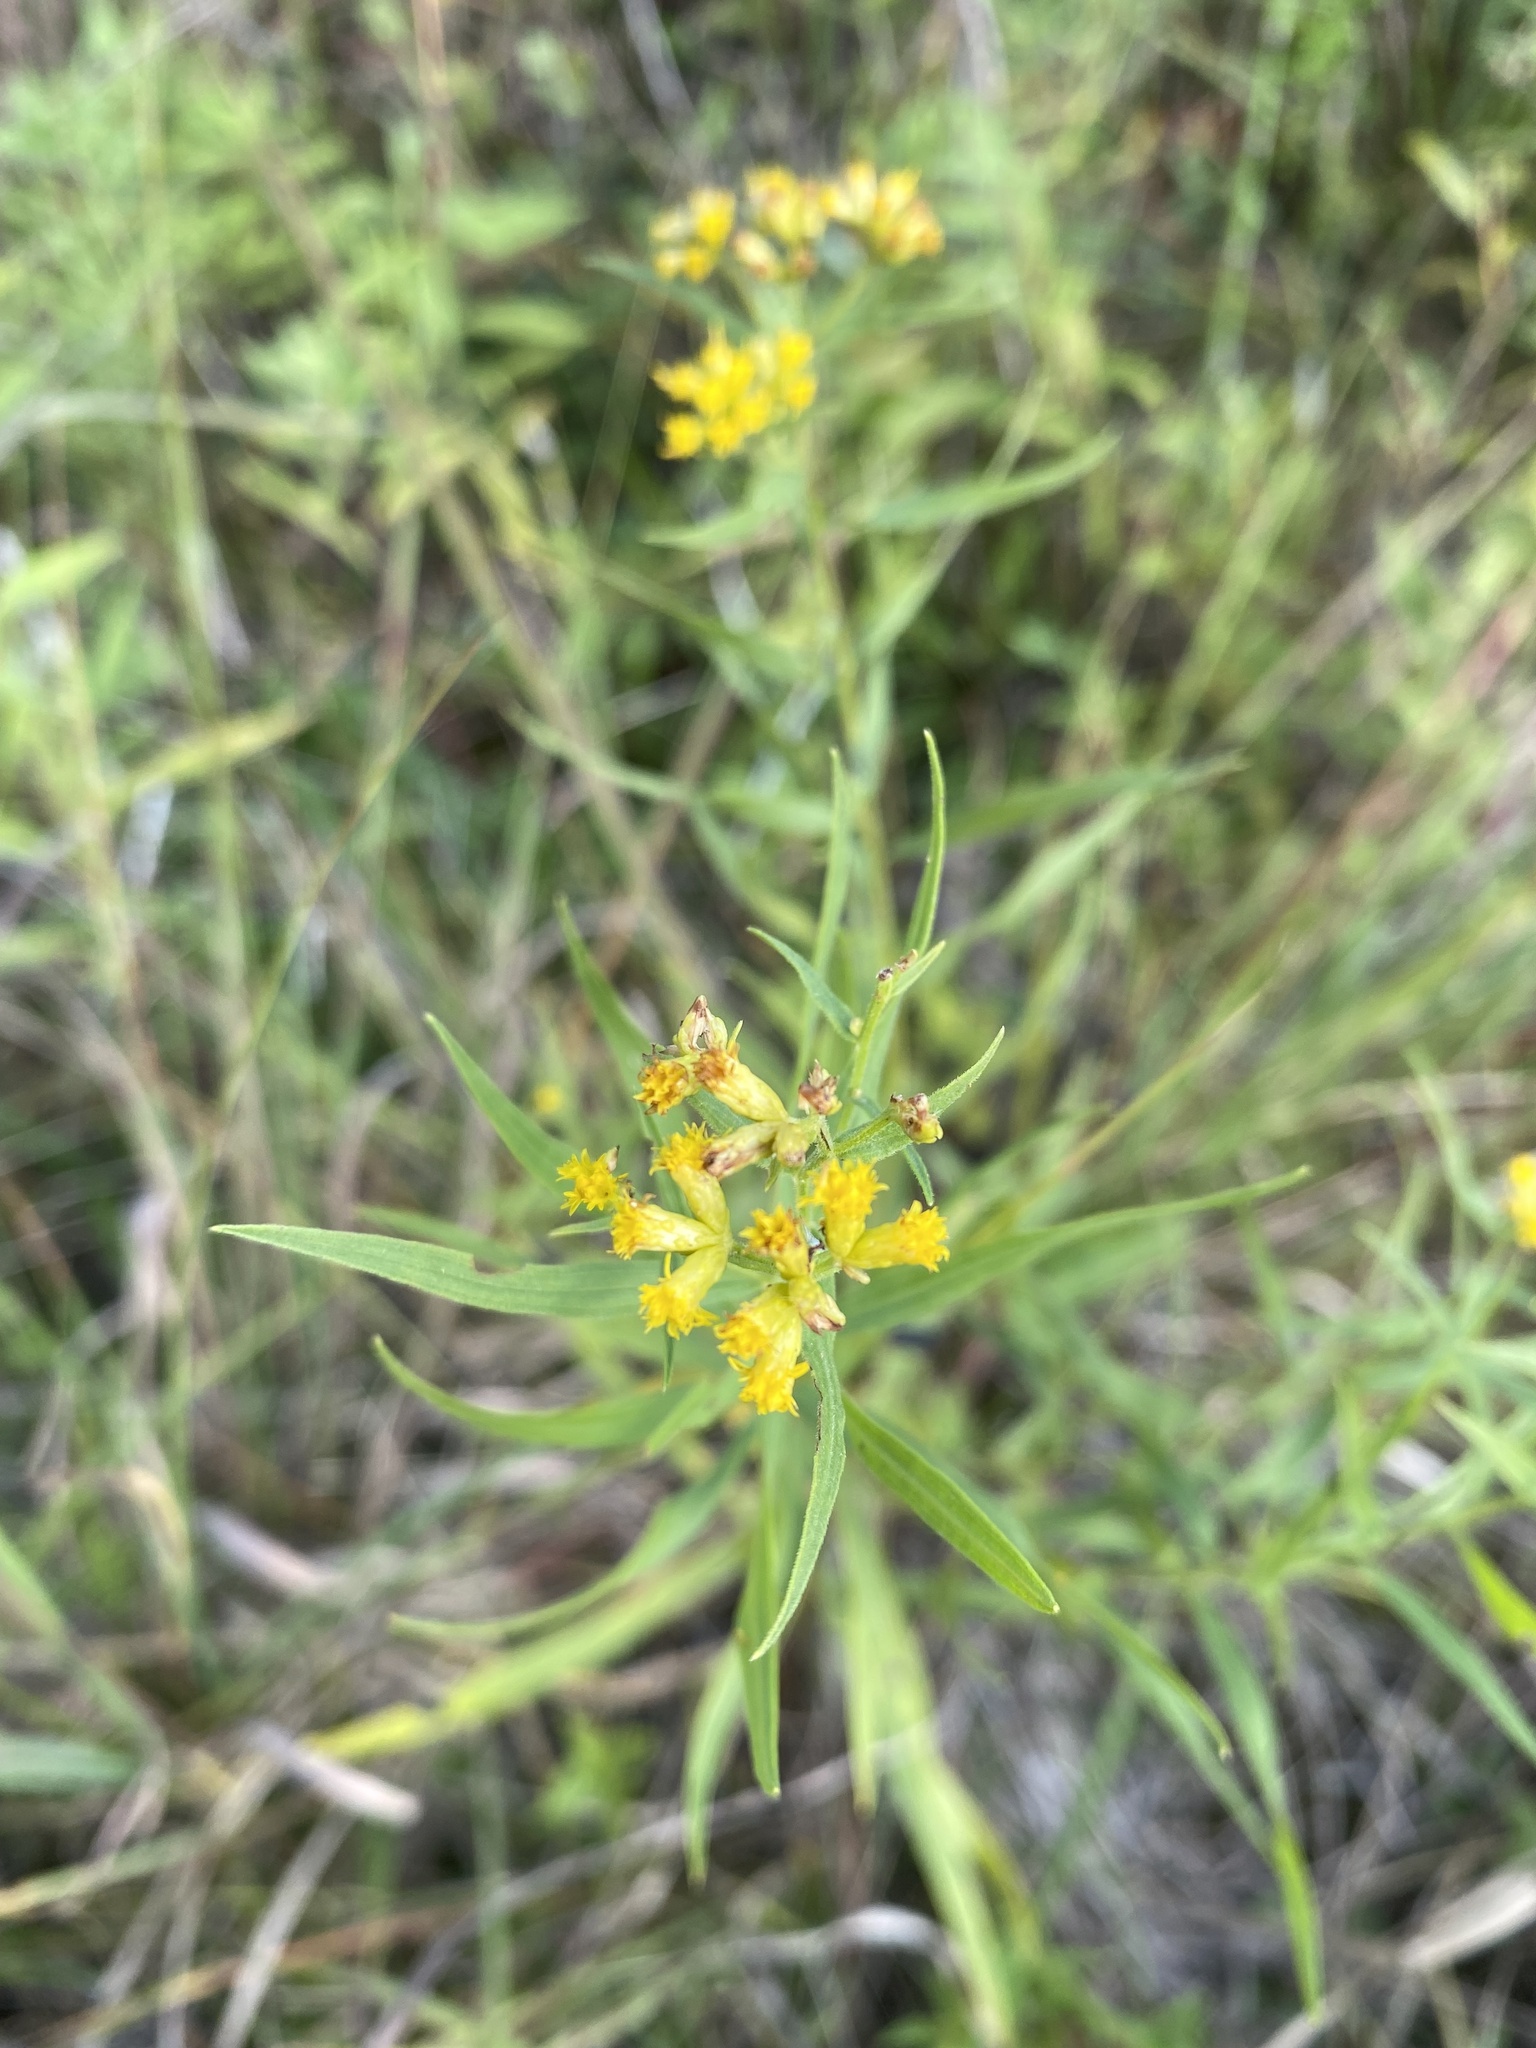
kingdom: Plantae
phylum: Tracheophyta
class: Magnoliopsida
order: Asterales
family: Asteraceae
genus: Euthamia
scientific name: Euthamia graminifolia
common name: Common goldentop
